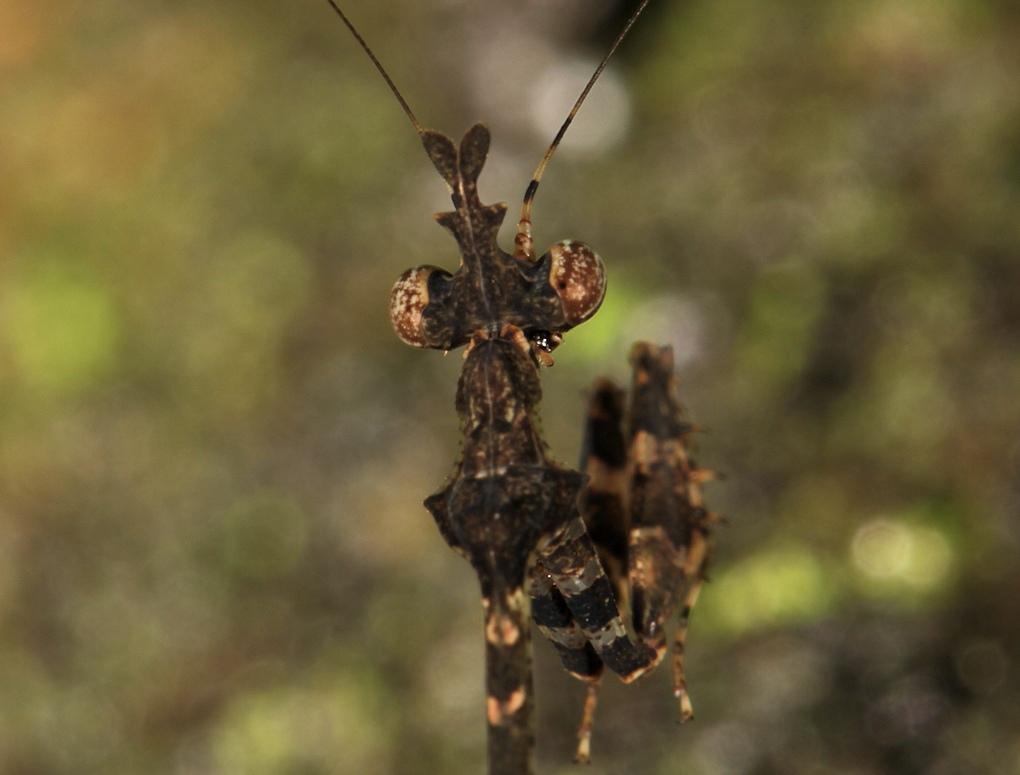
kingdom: Animalia
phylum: Arthropoda
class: Insecta
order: Mantodea
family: Hymenopodidae
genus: Sibylla
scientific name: Sibylla pretiosa
